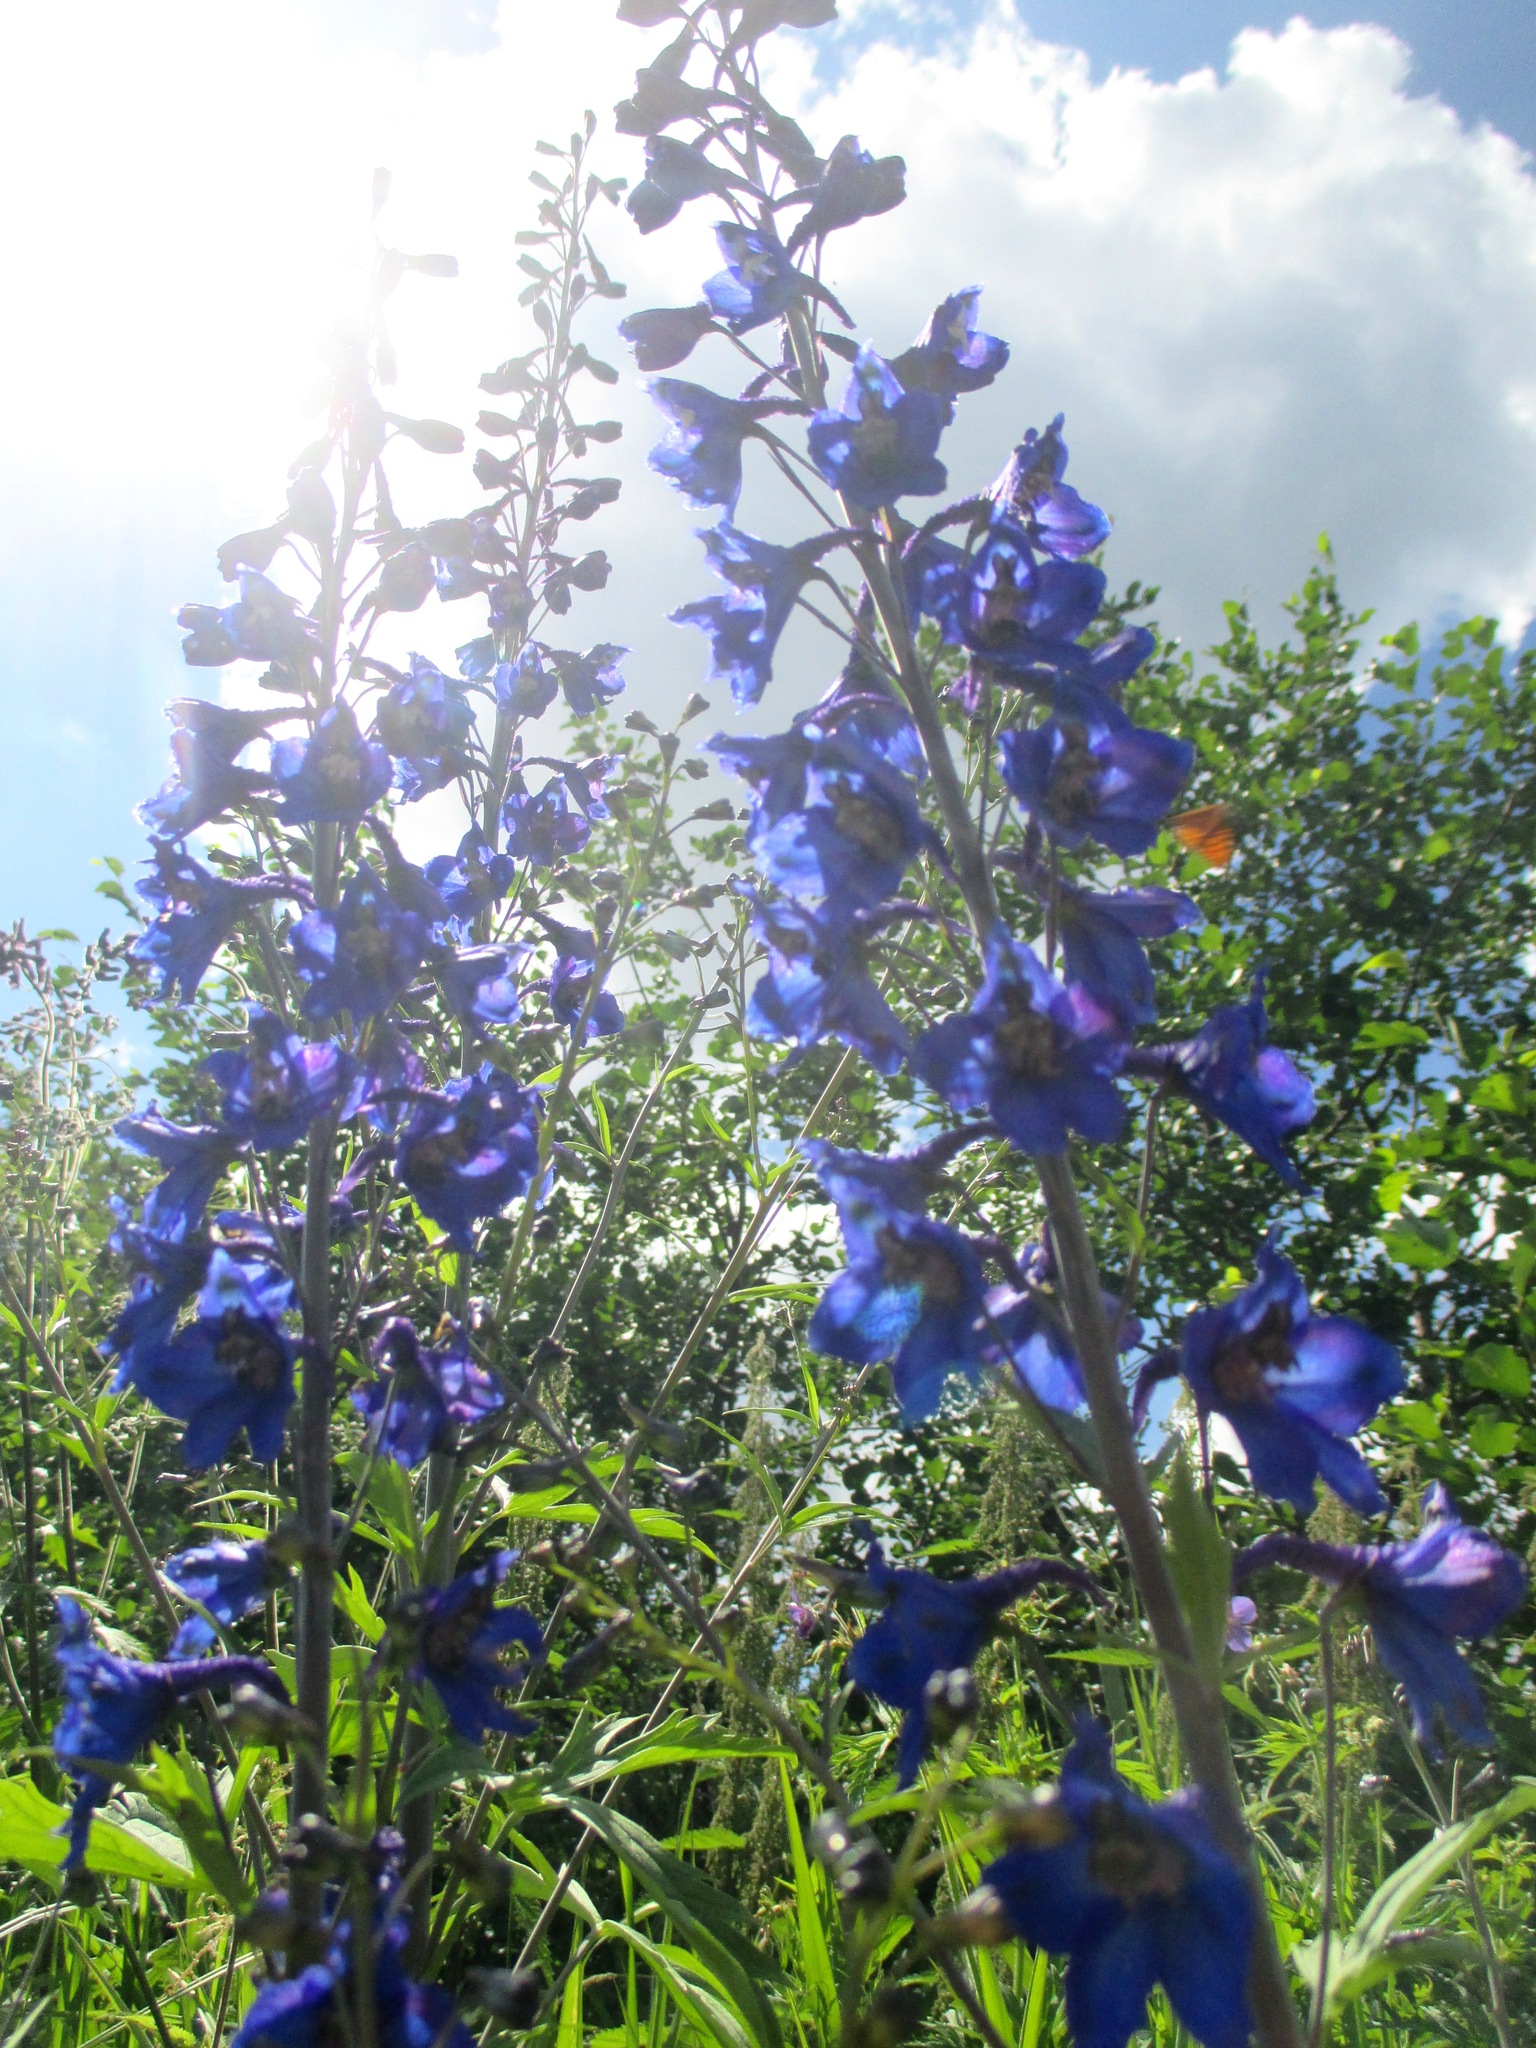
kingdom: Plantae
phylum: Tracheophyta
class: Magnoliopsida
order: Ranunculales
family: Ranunculaceae
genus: Delphinium
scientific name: Delphinium elatum
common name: Candle larkspur
